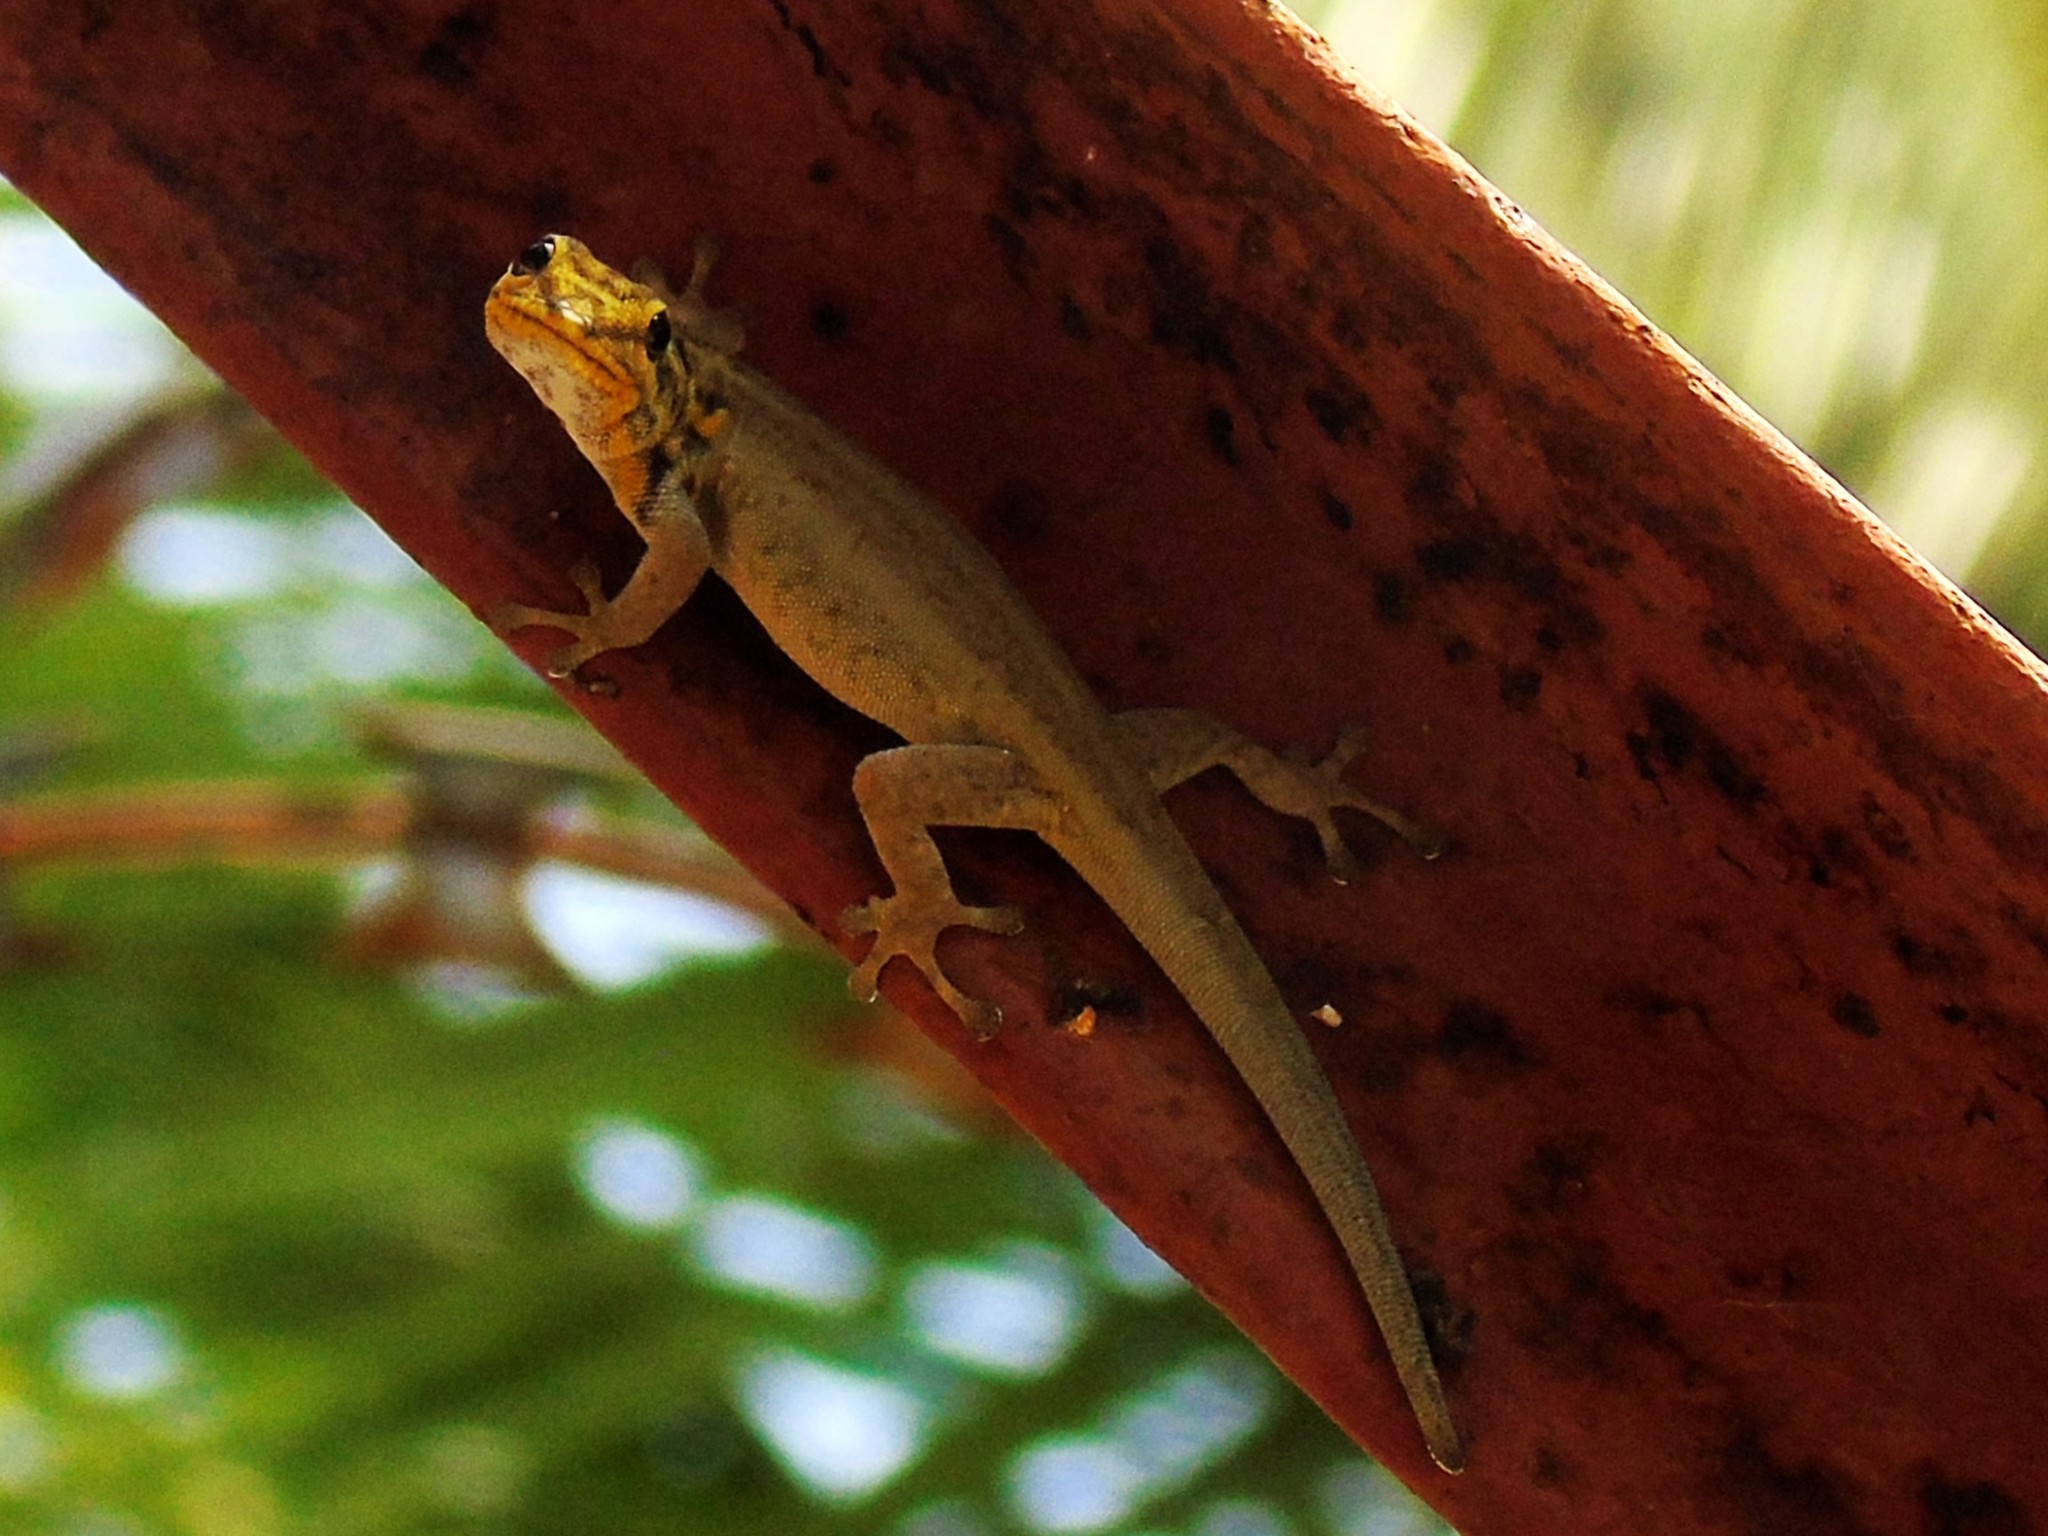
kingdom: Animalia
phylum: Chordata
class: Squamata
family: Gekkonidae
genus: Lygodactylus
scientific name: Lygodactylus picturatus
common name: Painted dwarf gecko
